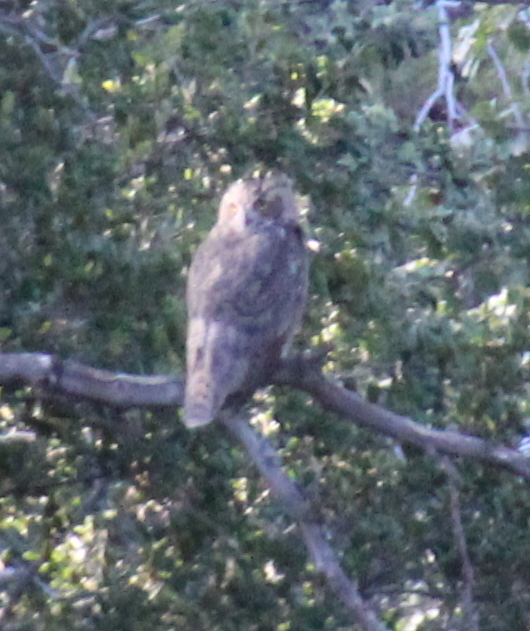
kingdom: Animalia
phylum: Chordata
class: Aves
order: Strigiformes
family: Strigidae
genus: Bubo
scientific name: Bubo virginianus
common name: Great horned owl
